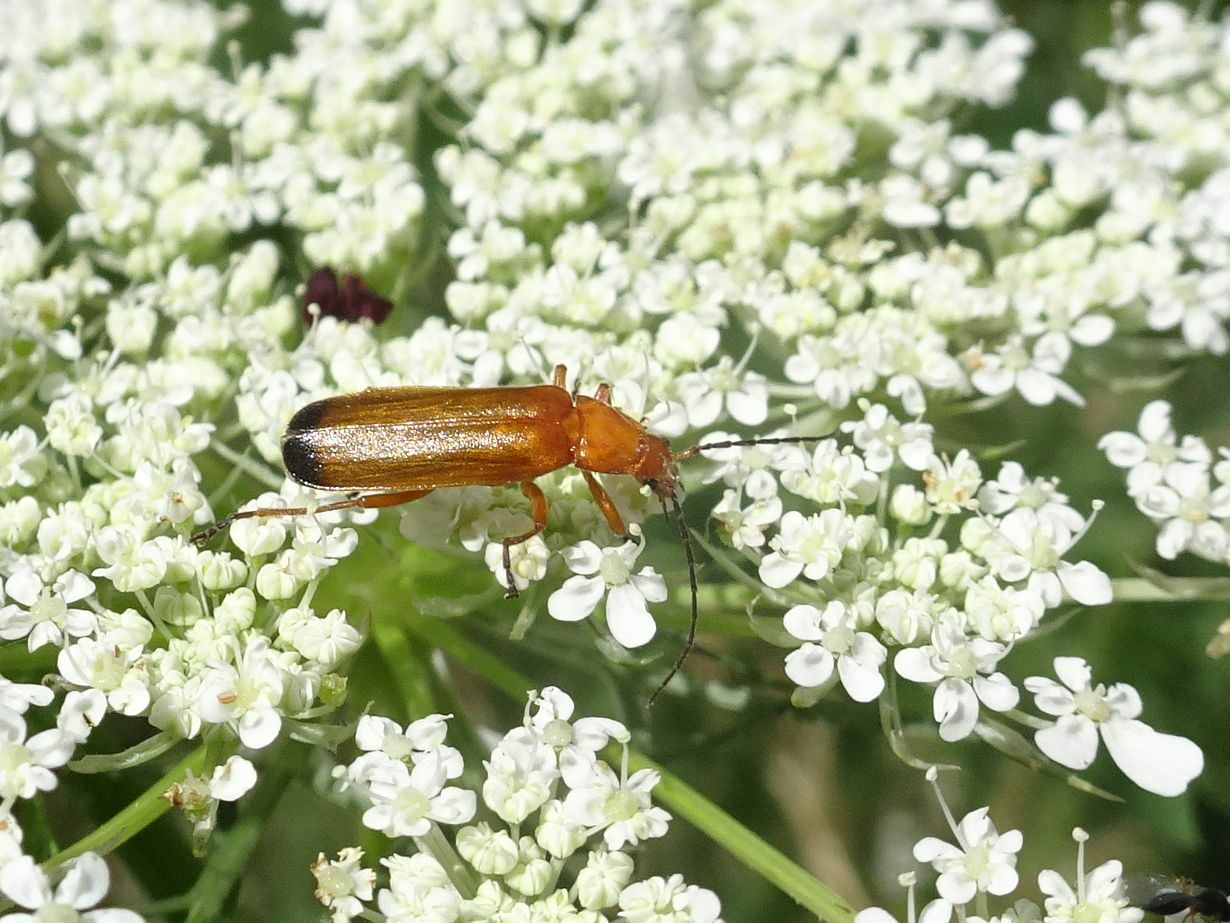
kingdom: Animalia
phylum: Arthropoda
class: Insecta
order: Coleoptera
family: Cantharidae
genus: Rhagonycha
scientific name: Rhagonycha fulva
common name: Common red soldier beetle
